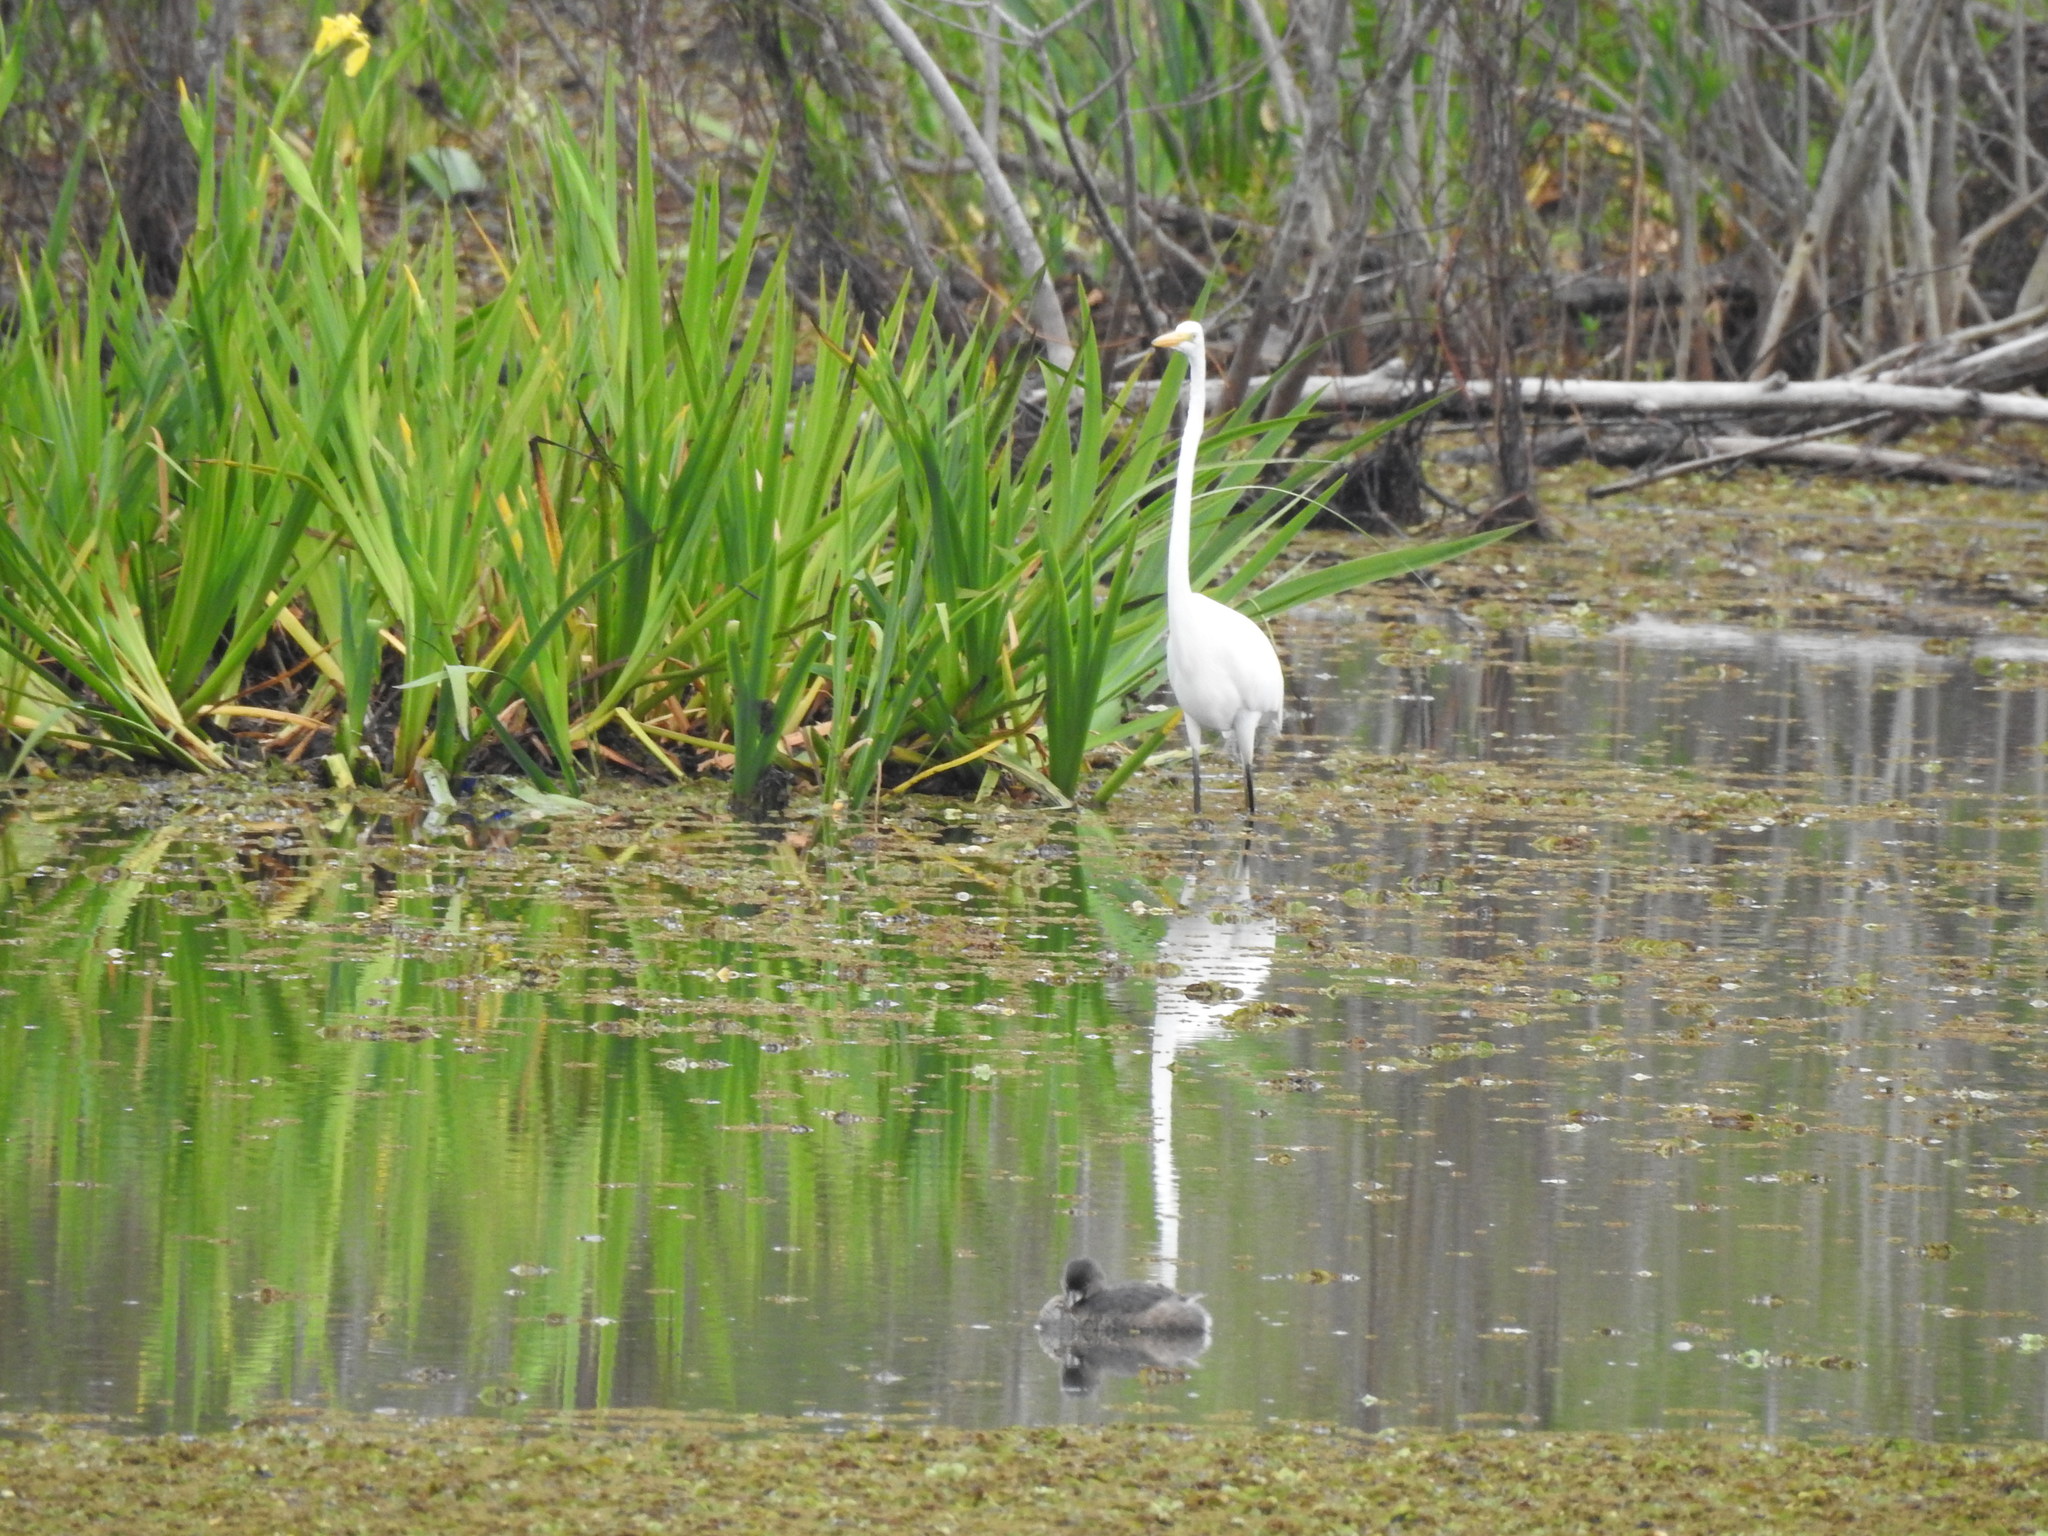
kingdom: Animalia
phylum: Chordata
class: Aves
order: Pelecaniformes
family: Ardeidae
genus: Ardea
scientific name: Ardea alba
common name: Great egret
